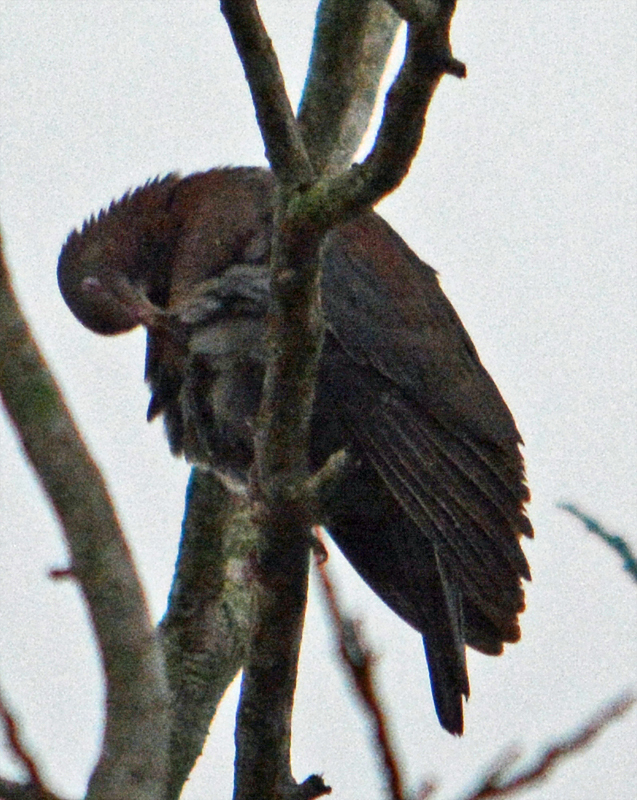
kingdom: Animalia
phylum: Chordata
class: Aves
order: Columbiformes
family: Columbidae
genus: Patagioenas
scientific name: Patagioenas flavirostris
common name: Red-billed pigeon
